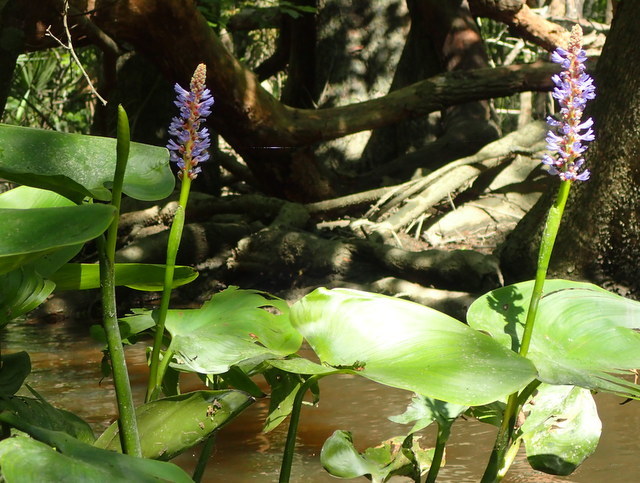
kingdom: Plantae
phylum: Tracheophyta
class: Liliopsida
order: Commelinales
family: Pontederiaceae
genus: Pontederia
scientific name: Pontederia cordata
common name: Pickerelweed
